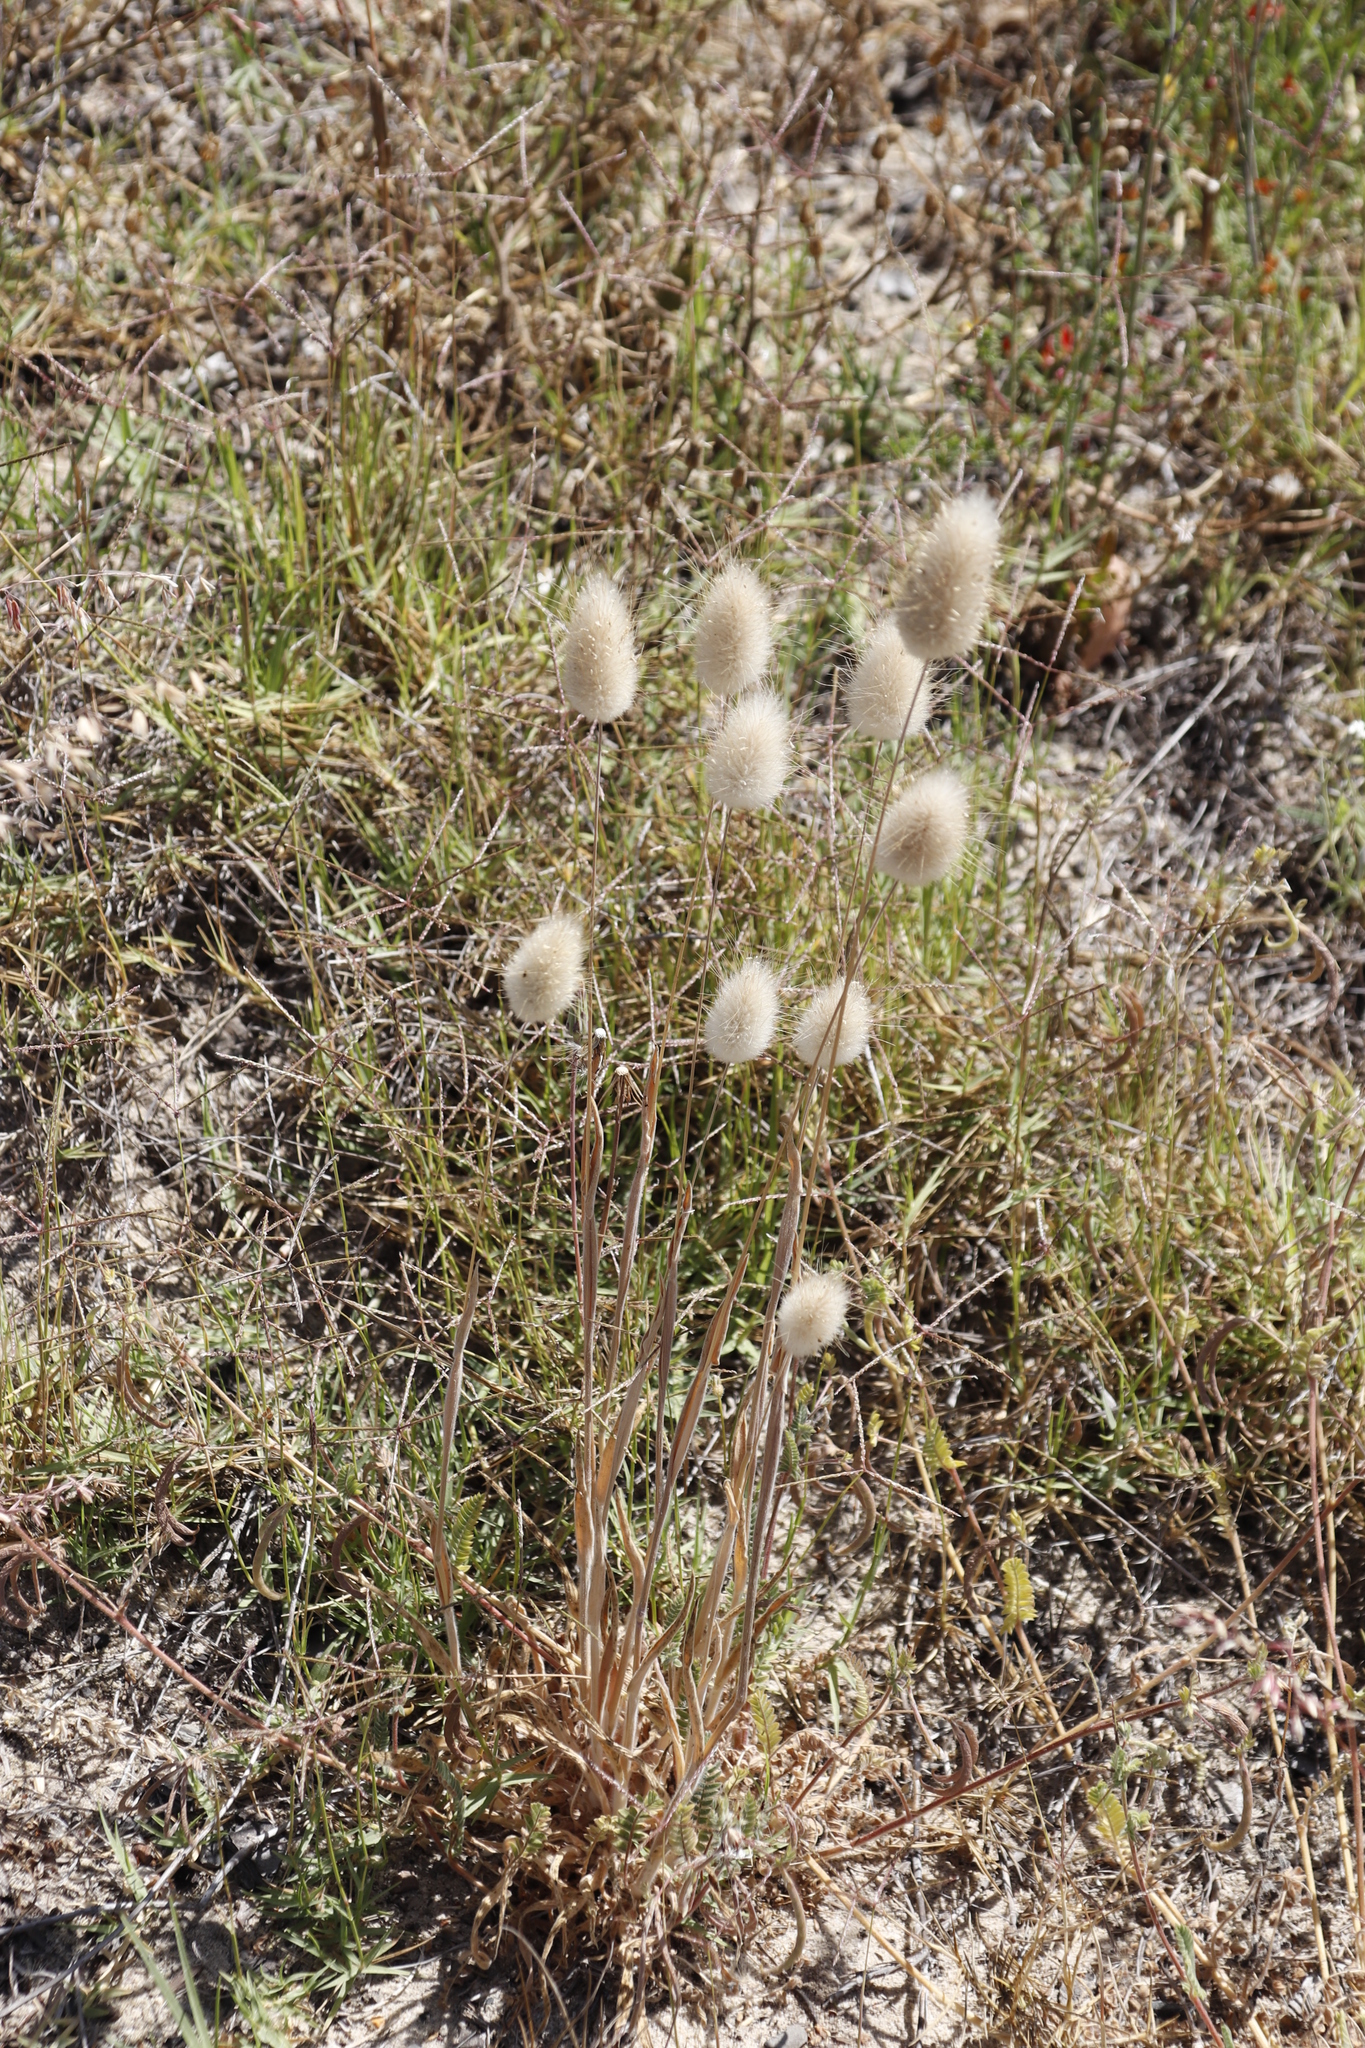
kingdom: Plantae
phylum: Tracheophyta
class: Liliopsida
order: Poales
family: Poaceae
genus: Lagurus
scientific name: Lagurus ovatus
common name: Hare's-tail
